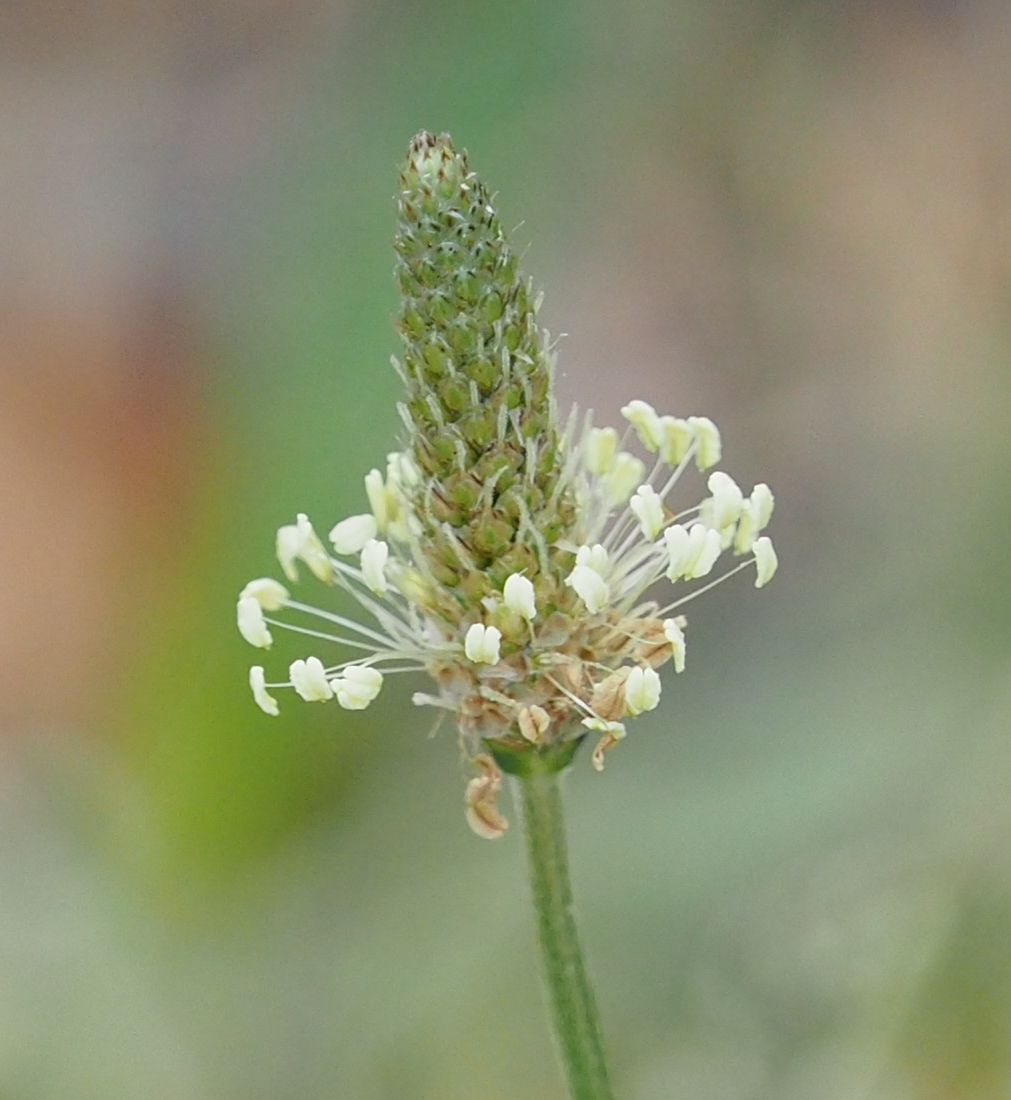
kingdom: Plantae
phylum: Tracheophyta
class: Magnoliopsida
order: Lamiales
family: Plantaginaceae
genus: Plantago
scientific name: Plantago lanceolata
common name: Ribwort plantain
